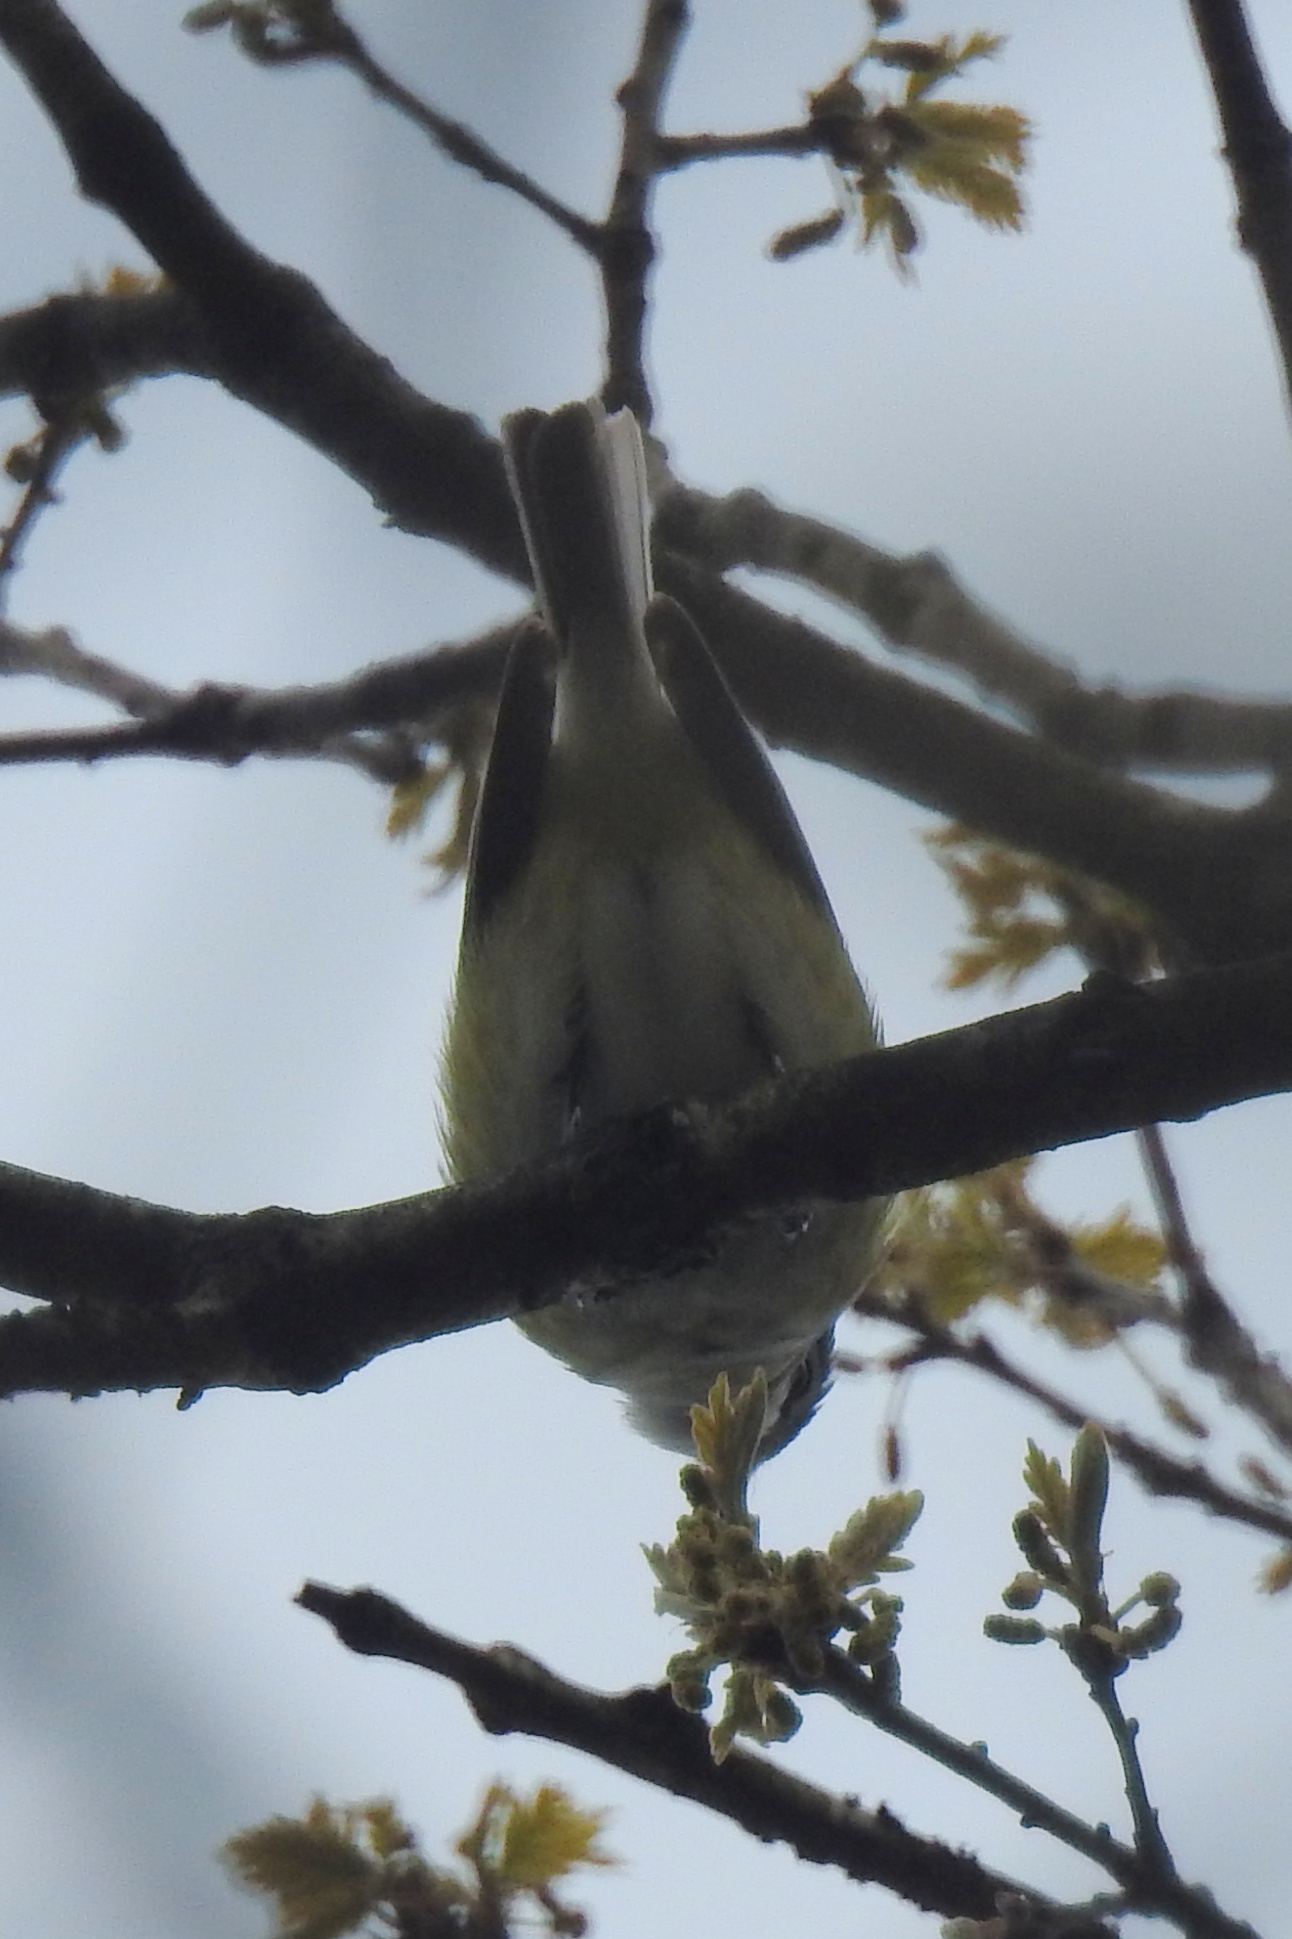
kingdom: Animalia
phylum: Chordata
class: Aves
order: Passeriformes
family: Vireonidae
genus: Vireo
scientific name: Vireo solitarius
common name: Blue-headed vireo
